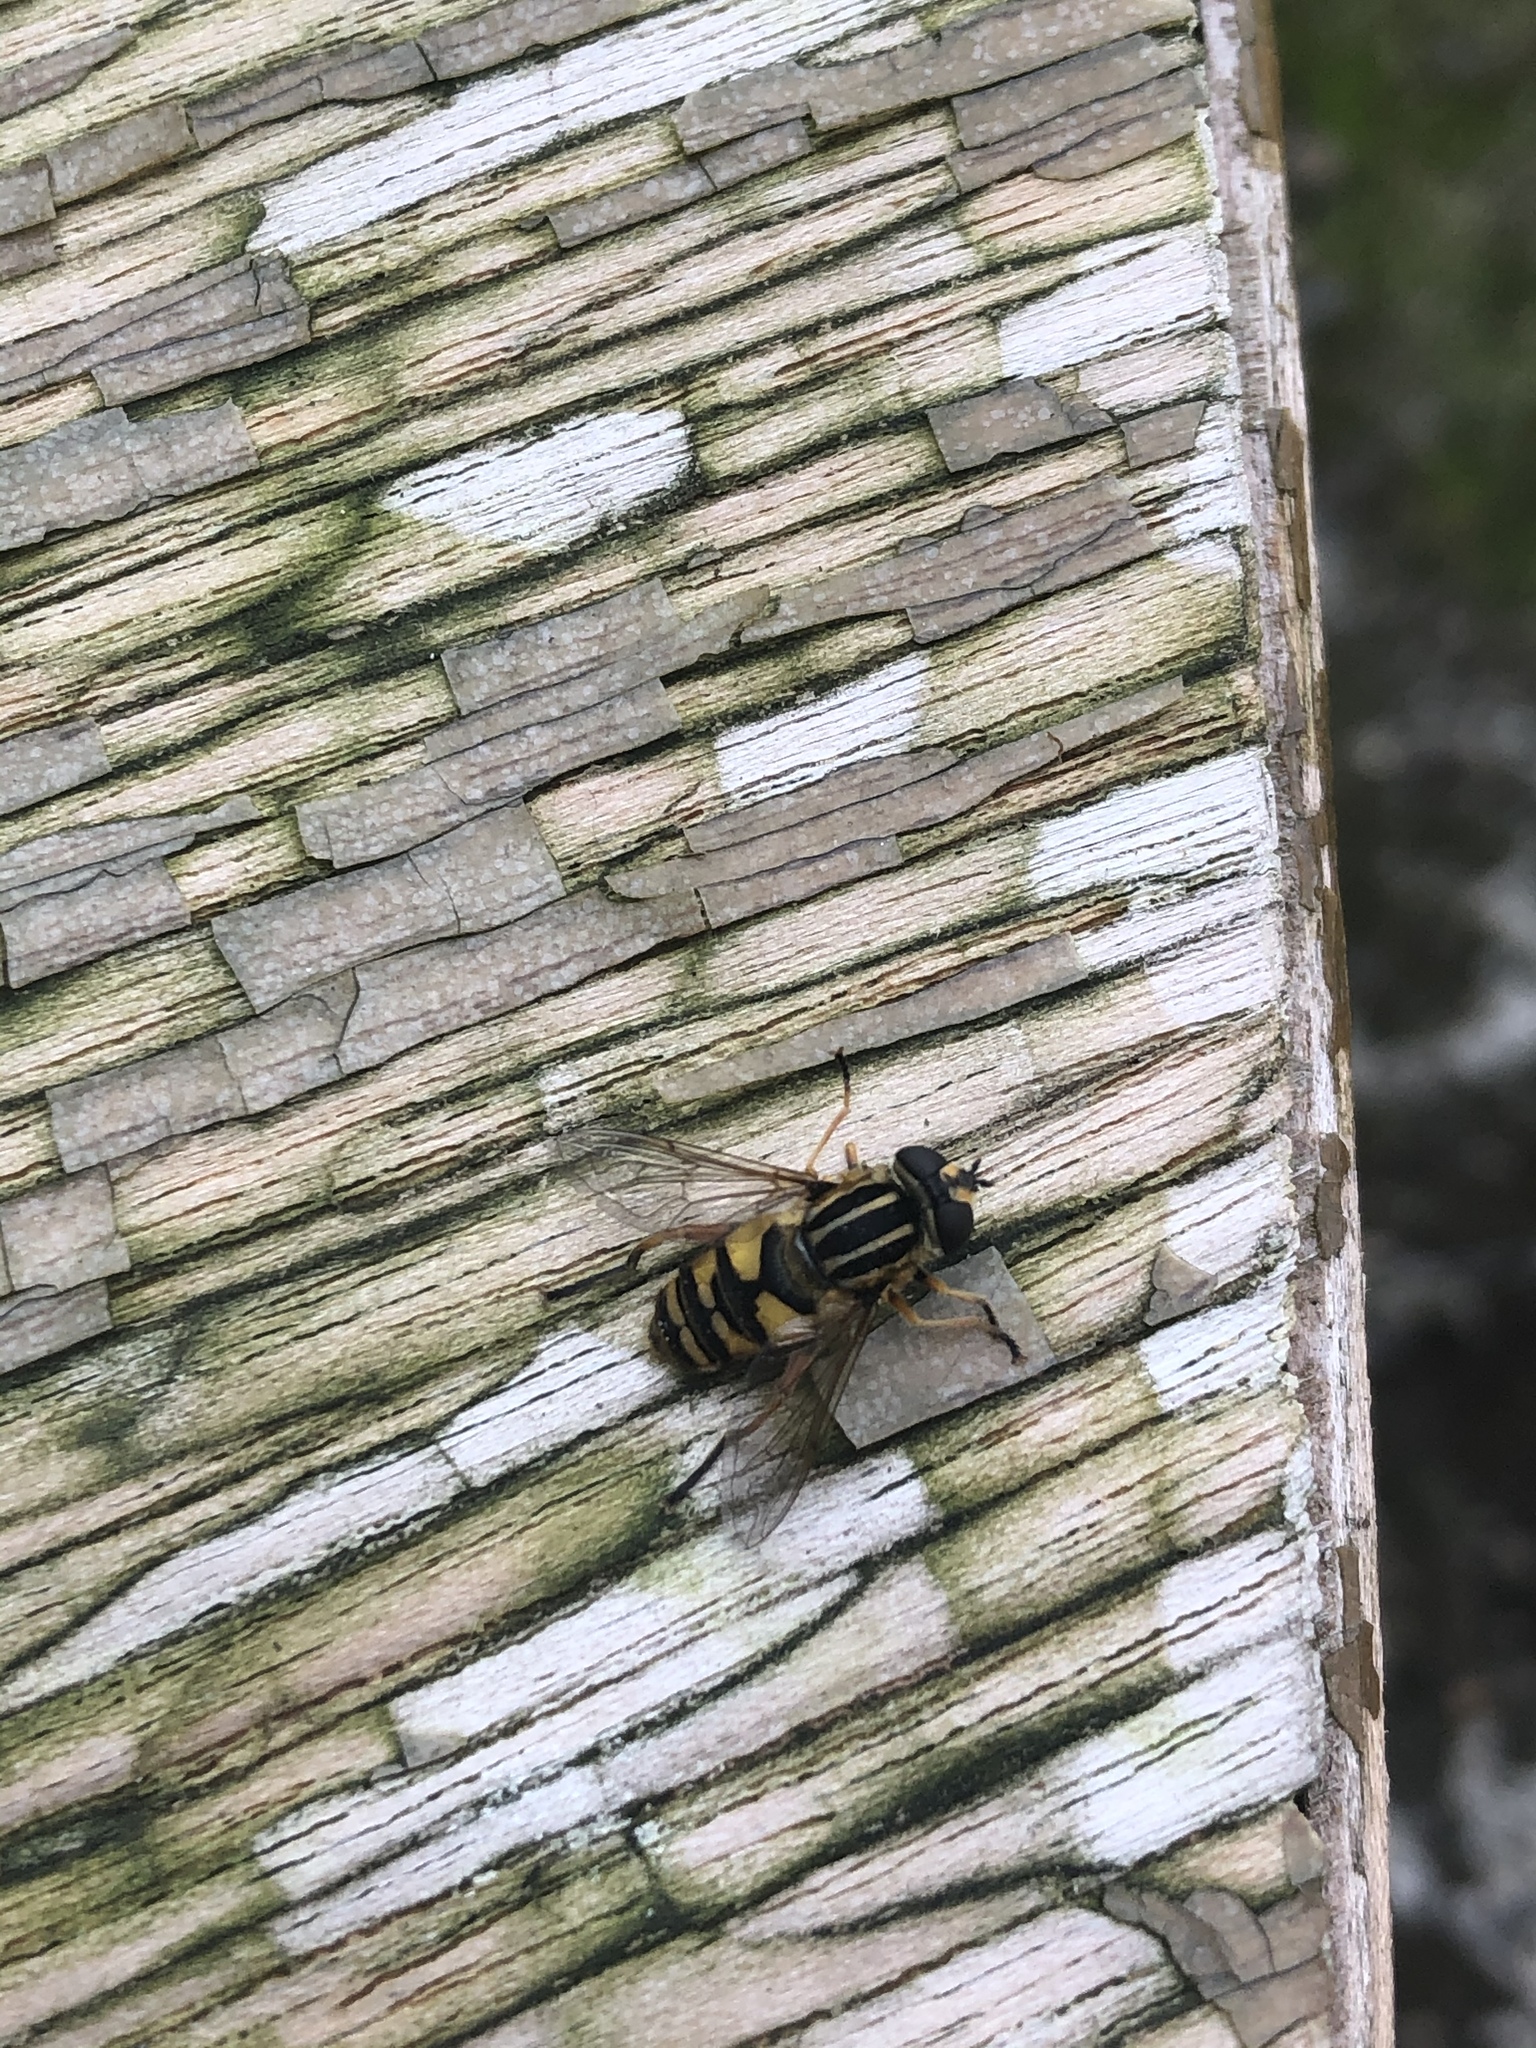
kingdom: Animalia
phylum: Arthropoda
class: Insecta
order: Diptera
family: Syrphidae
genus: Helophilus
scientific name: Helophilus pendulus
